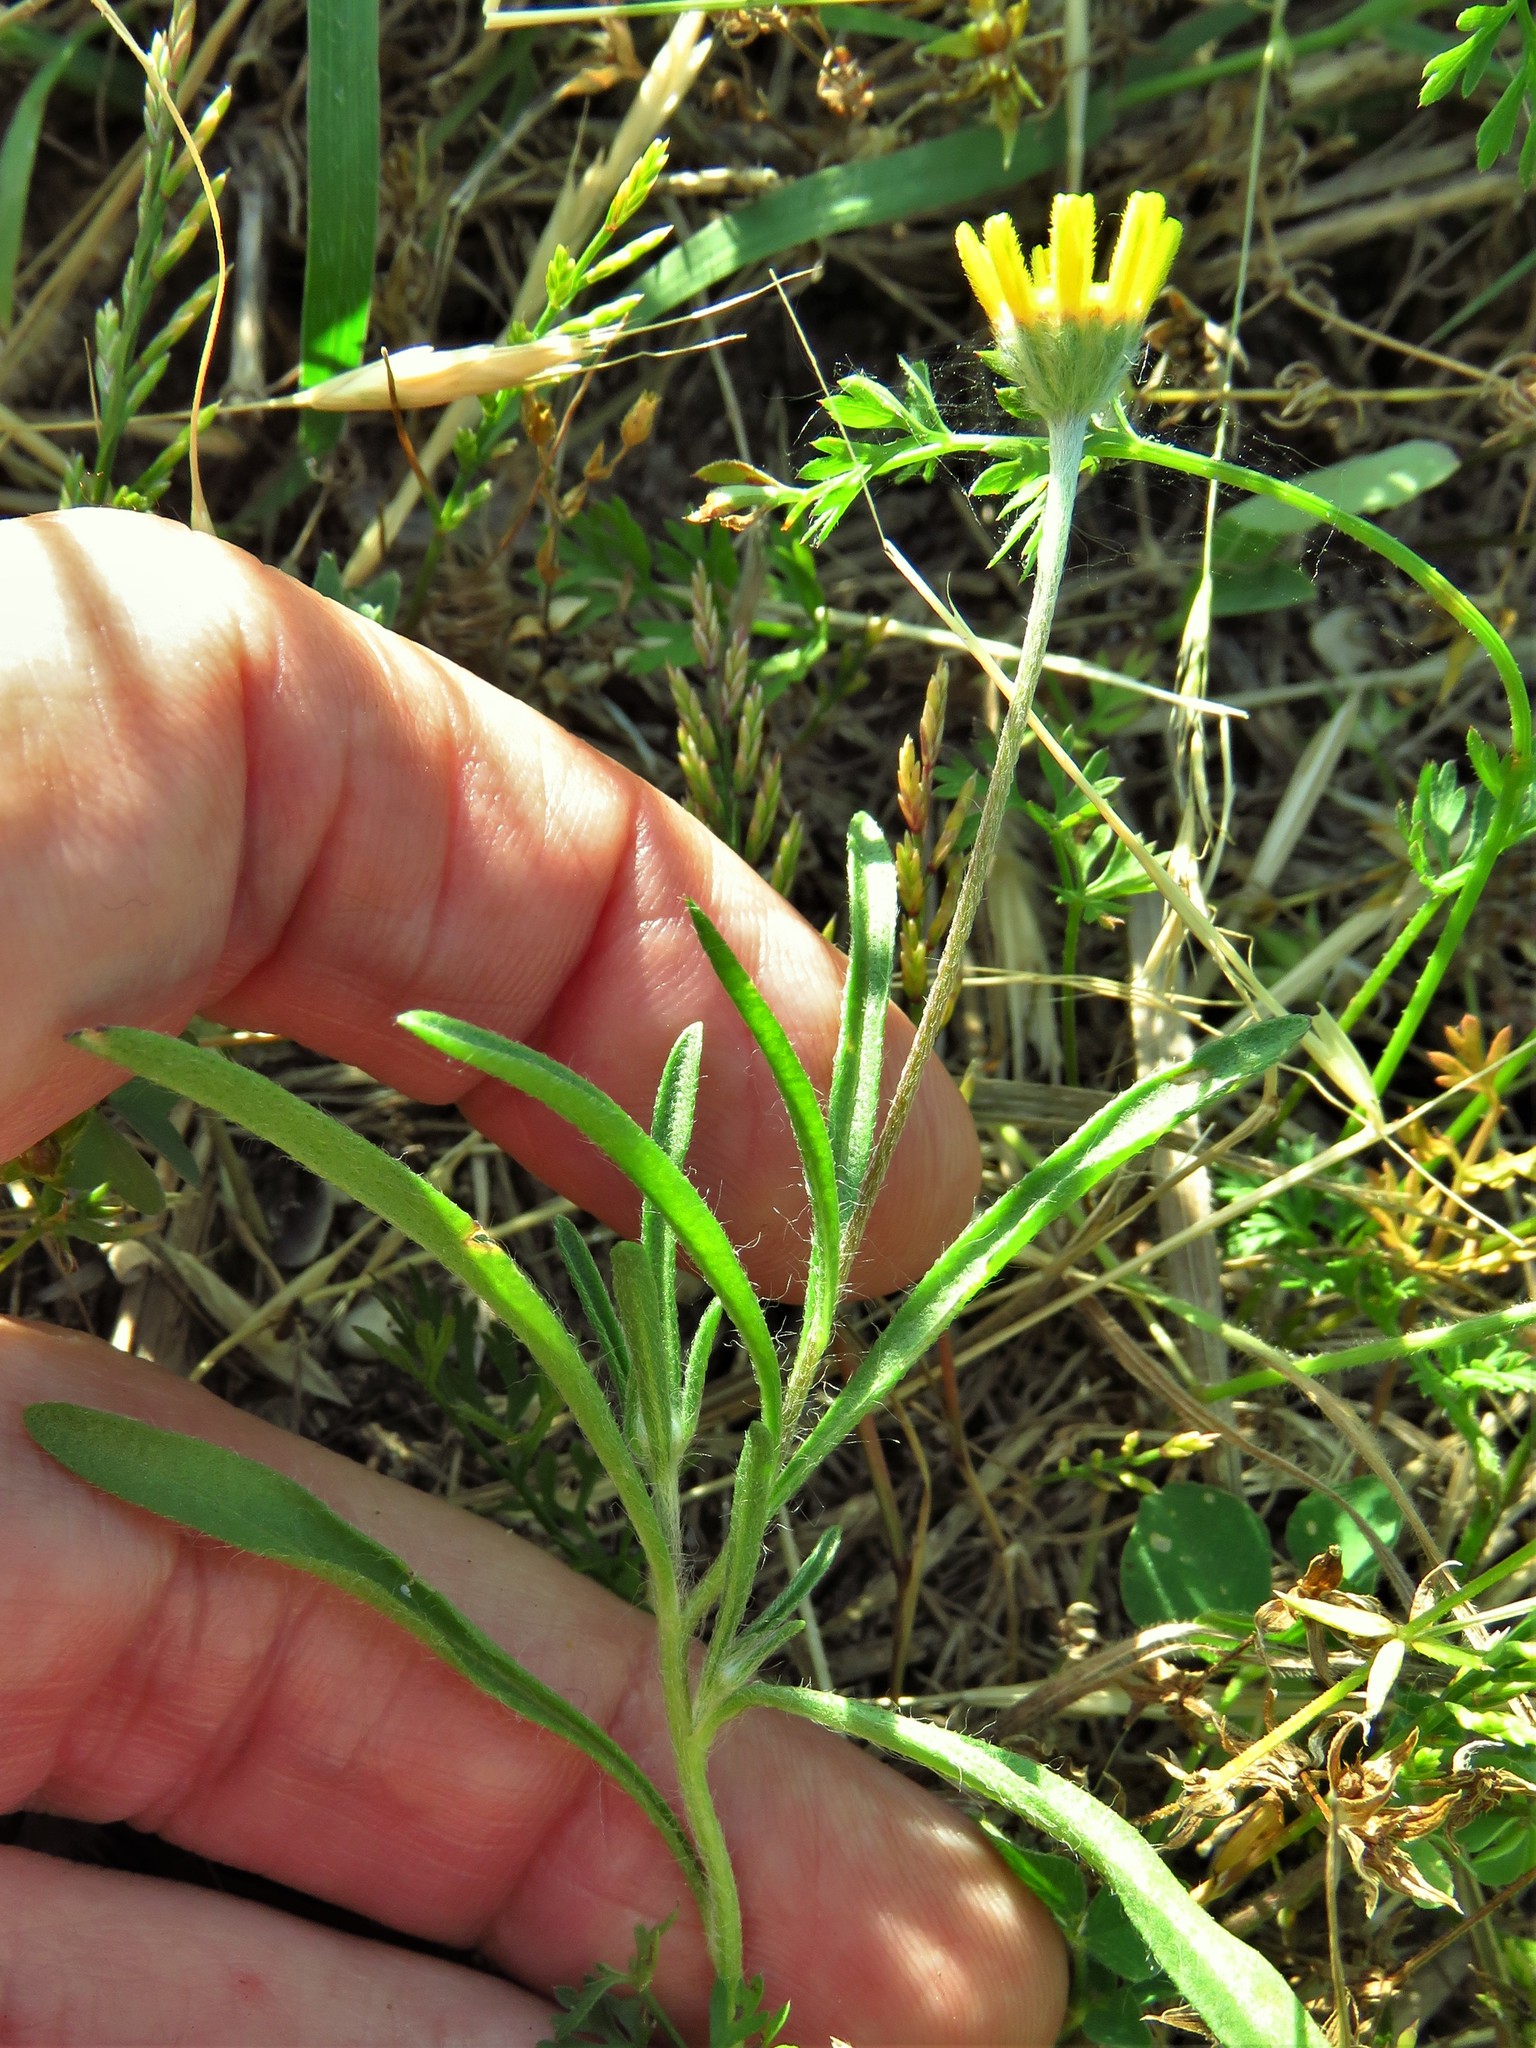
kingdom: Plantae
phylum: Tracheophyta
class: Magnoliopsida
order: Asterales
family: Asteraceae
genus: Tetraneuris
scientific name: Tetraneuris linearifolia
